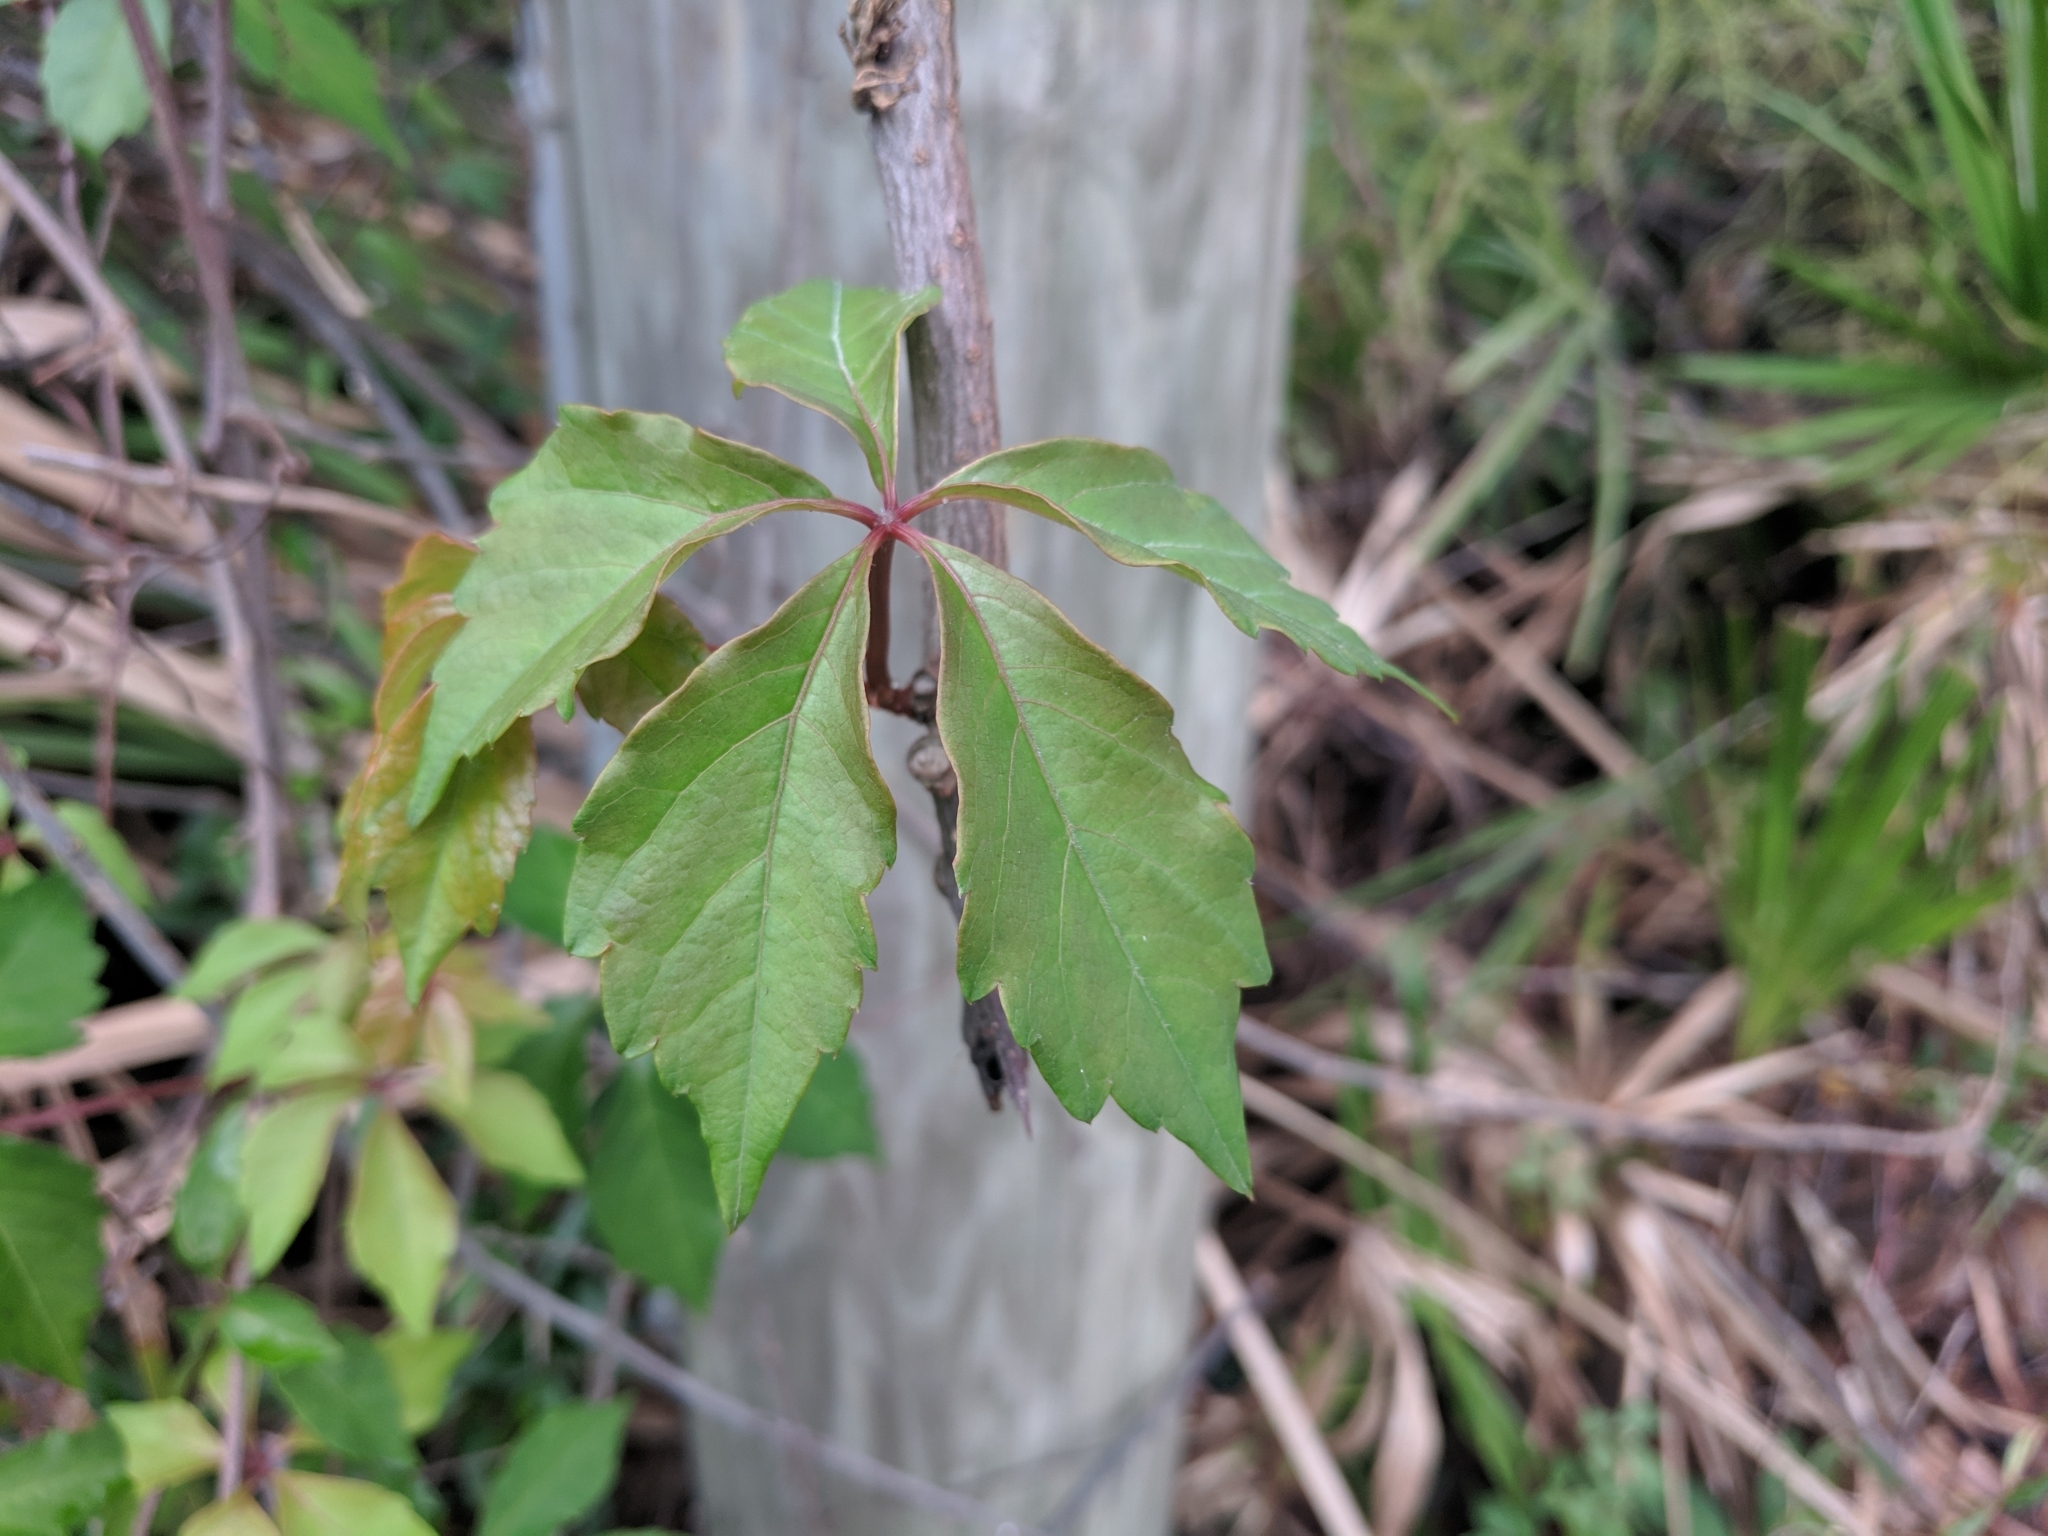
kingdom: Plantae
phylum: Tracheophyta
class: Magnoliopsida
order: Vitales
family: Vitaceae
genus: Parthenocissus
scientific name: Parthenocissus quinquefolia
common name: Virginia-creeper
